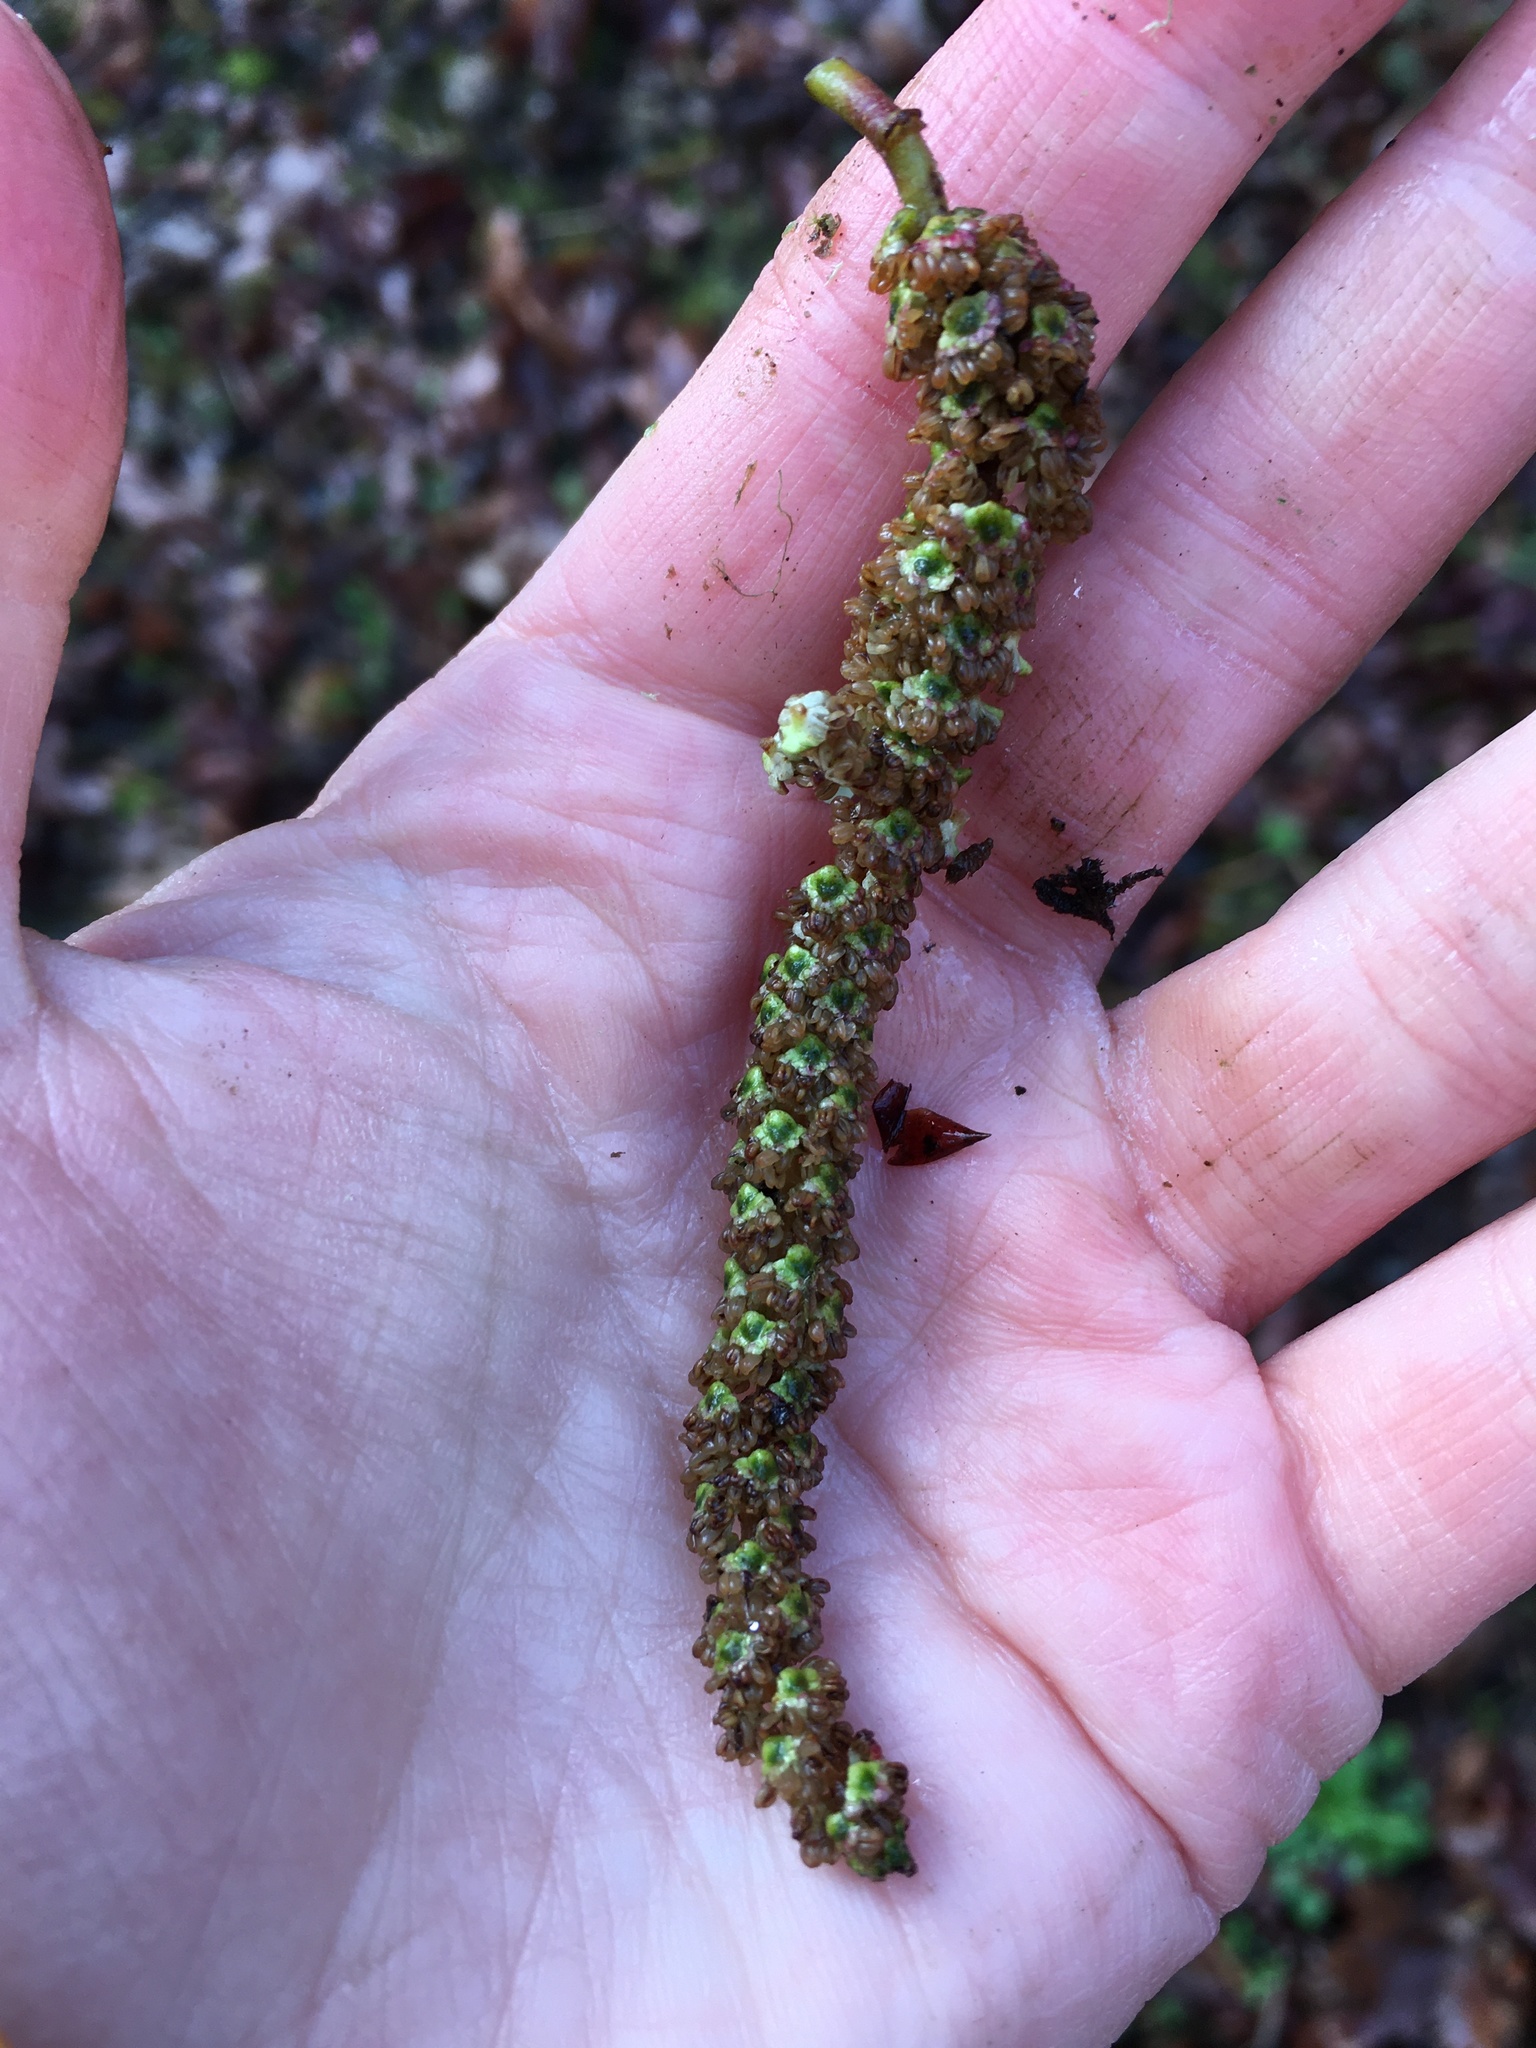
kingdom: Plantae
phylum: Tracheophyta
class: Magnoliopsida
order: Fagales
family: Betulaceae
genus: Alnus
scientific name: Alnus rubra
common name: Red alder
